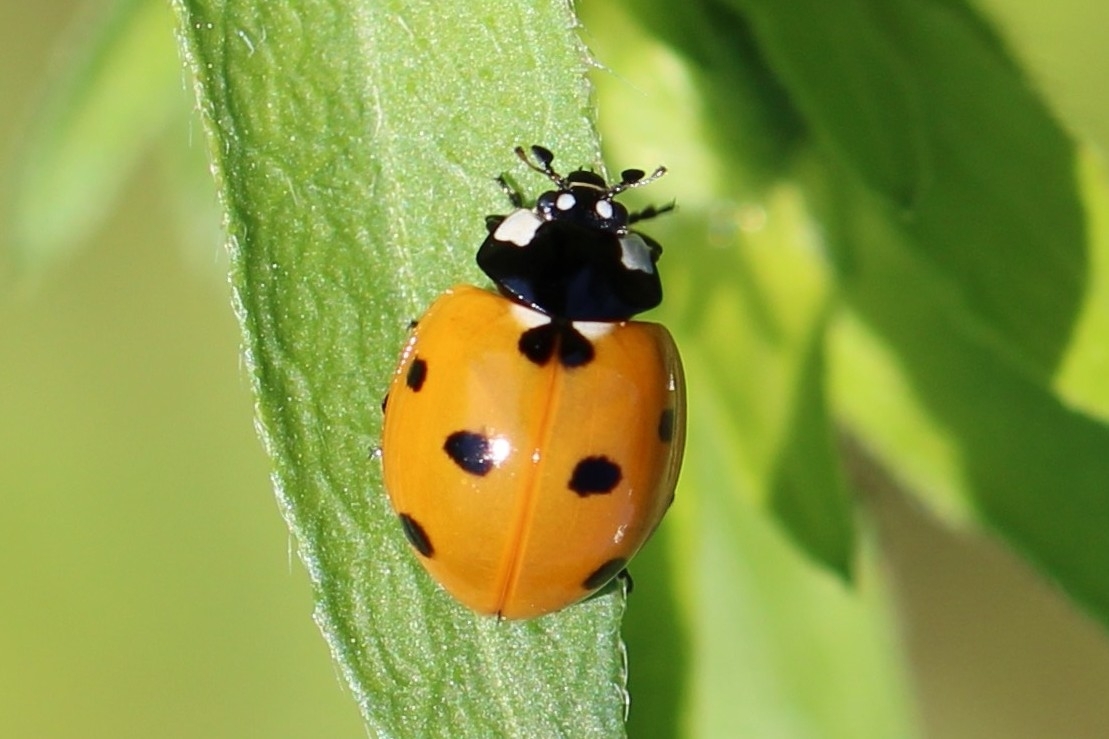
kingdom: Animalia
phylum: Arthropoda
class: Insecta
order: Coleoptera
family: Coccinellidae
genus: Coccinella
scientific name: Coccinella septempunctata
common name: Sevenspotted lady beetle
